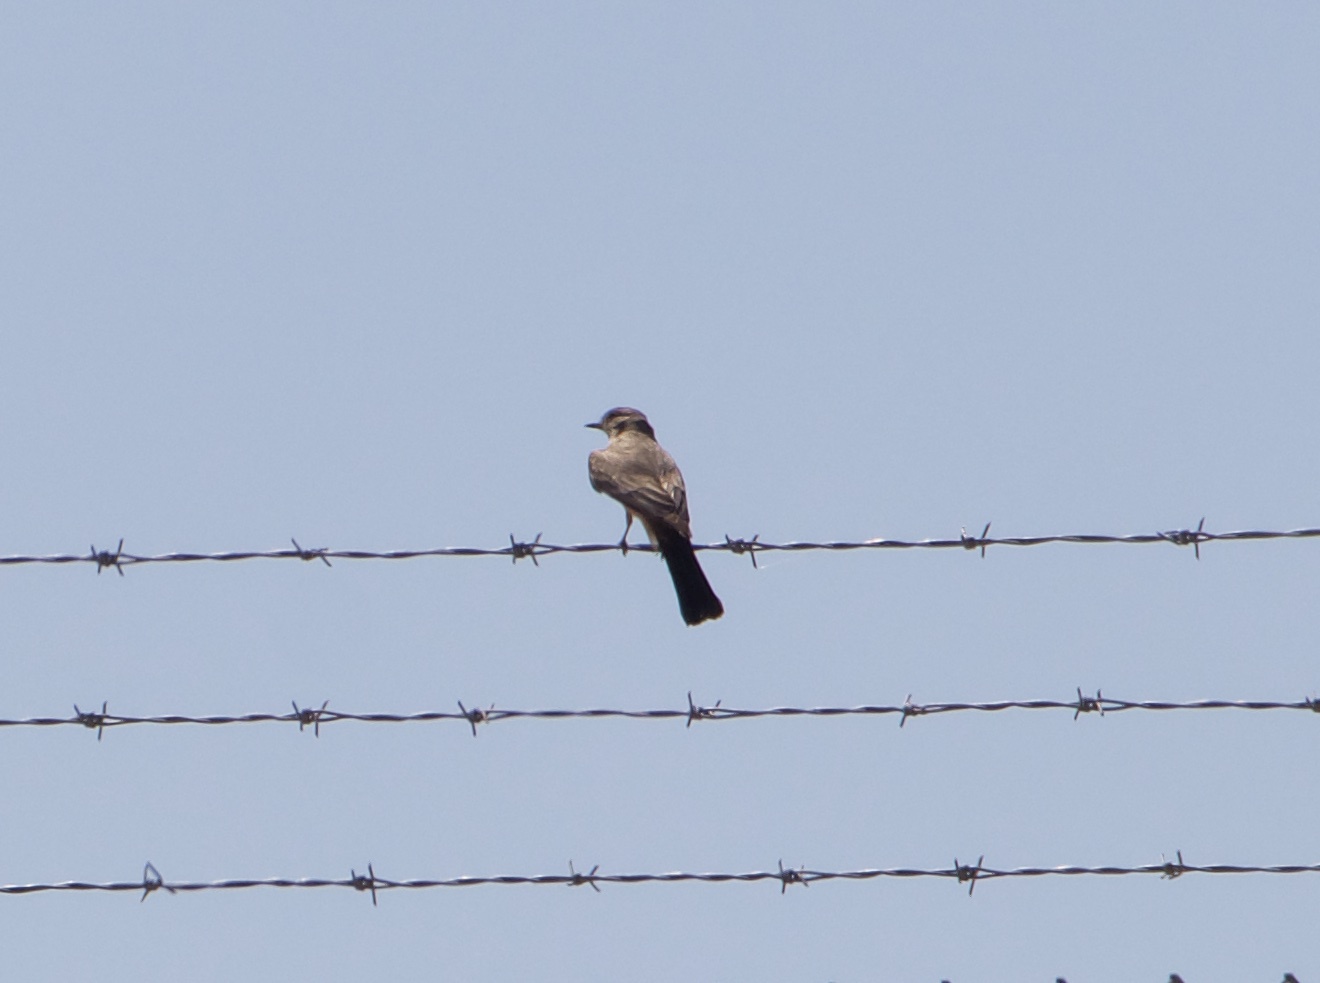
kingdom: Animalia
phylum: Chordata
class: Aves
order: Passeriformes
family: Tyrannidae
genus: Sayornis
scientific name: Sayornis saya
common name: Say's phoebe
